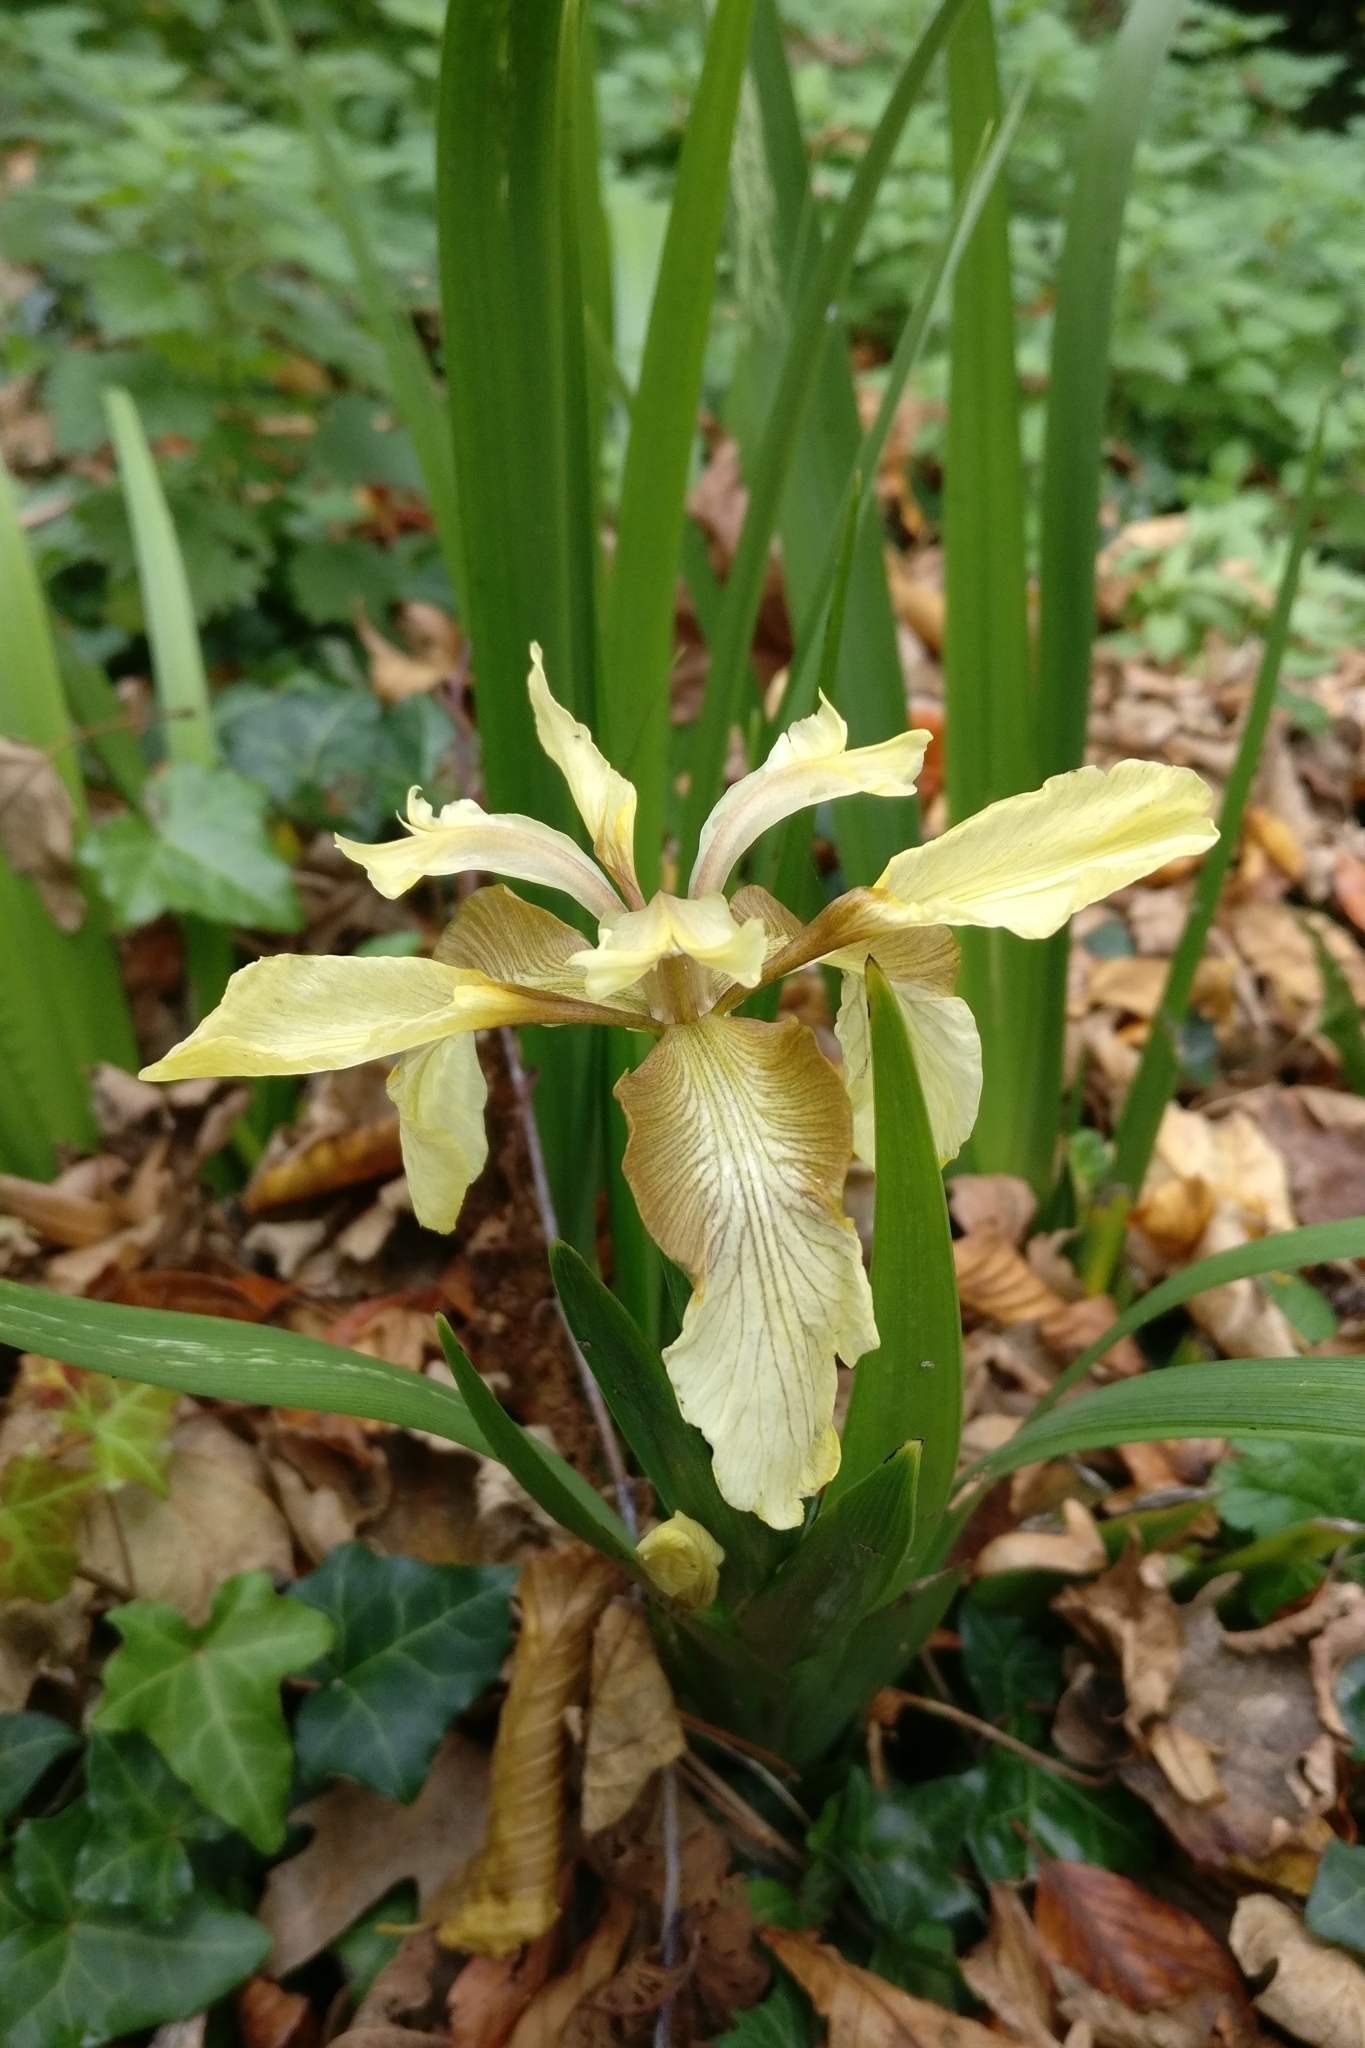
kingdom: Plantae
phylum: Tracheophyta
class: Liliopsida
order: Asparagales
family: Iridaceae
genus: Iris
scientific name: Iris foetidissima
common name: Stinking iris
